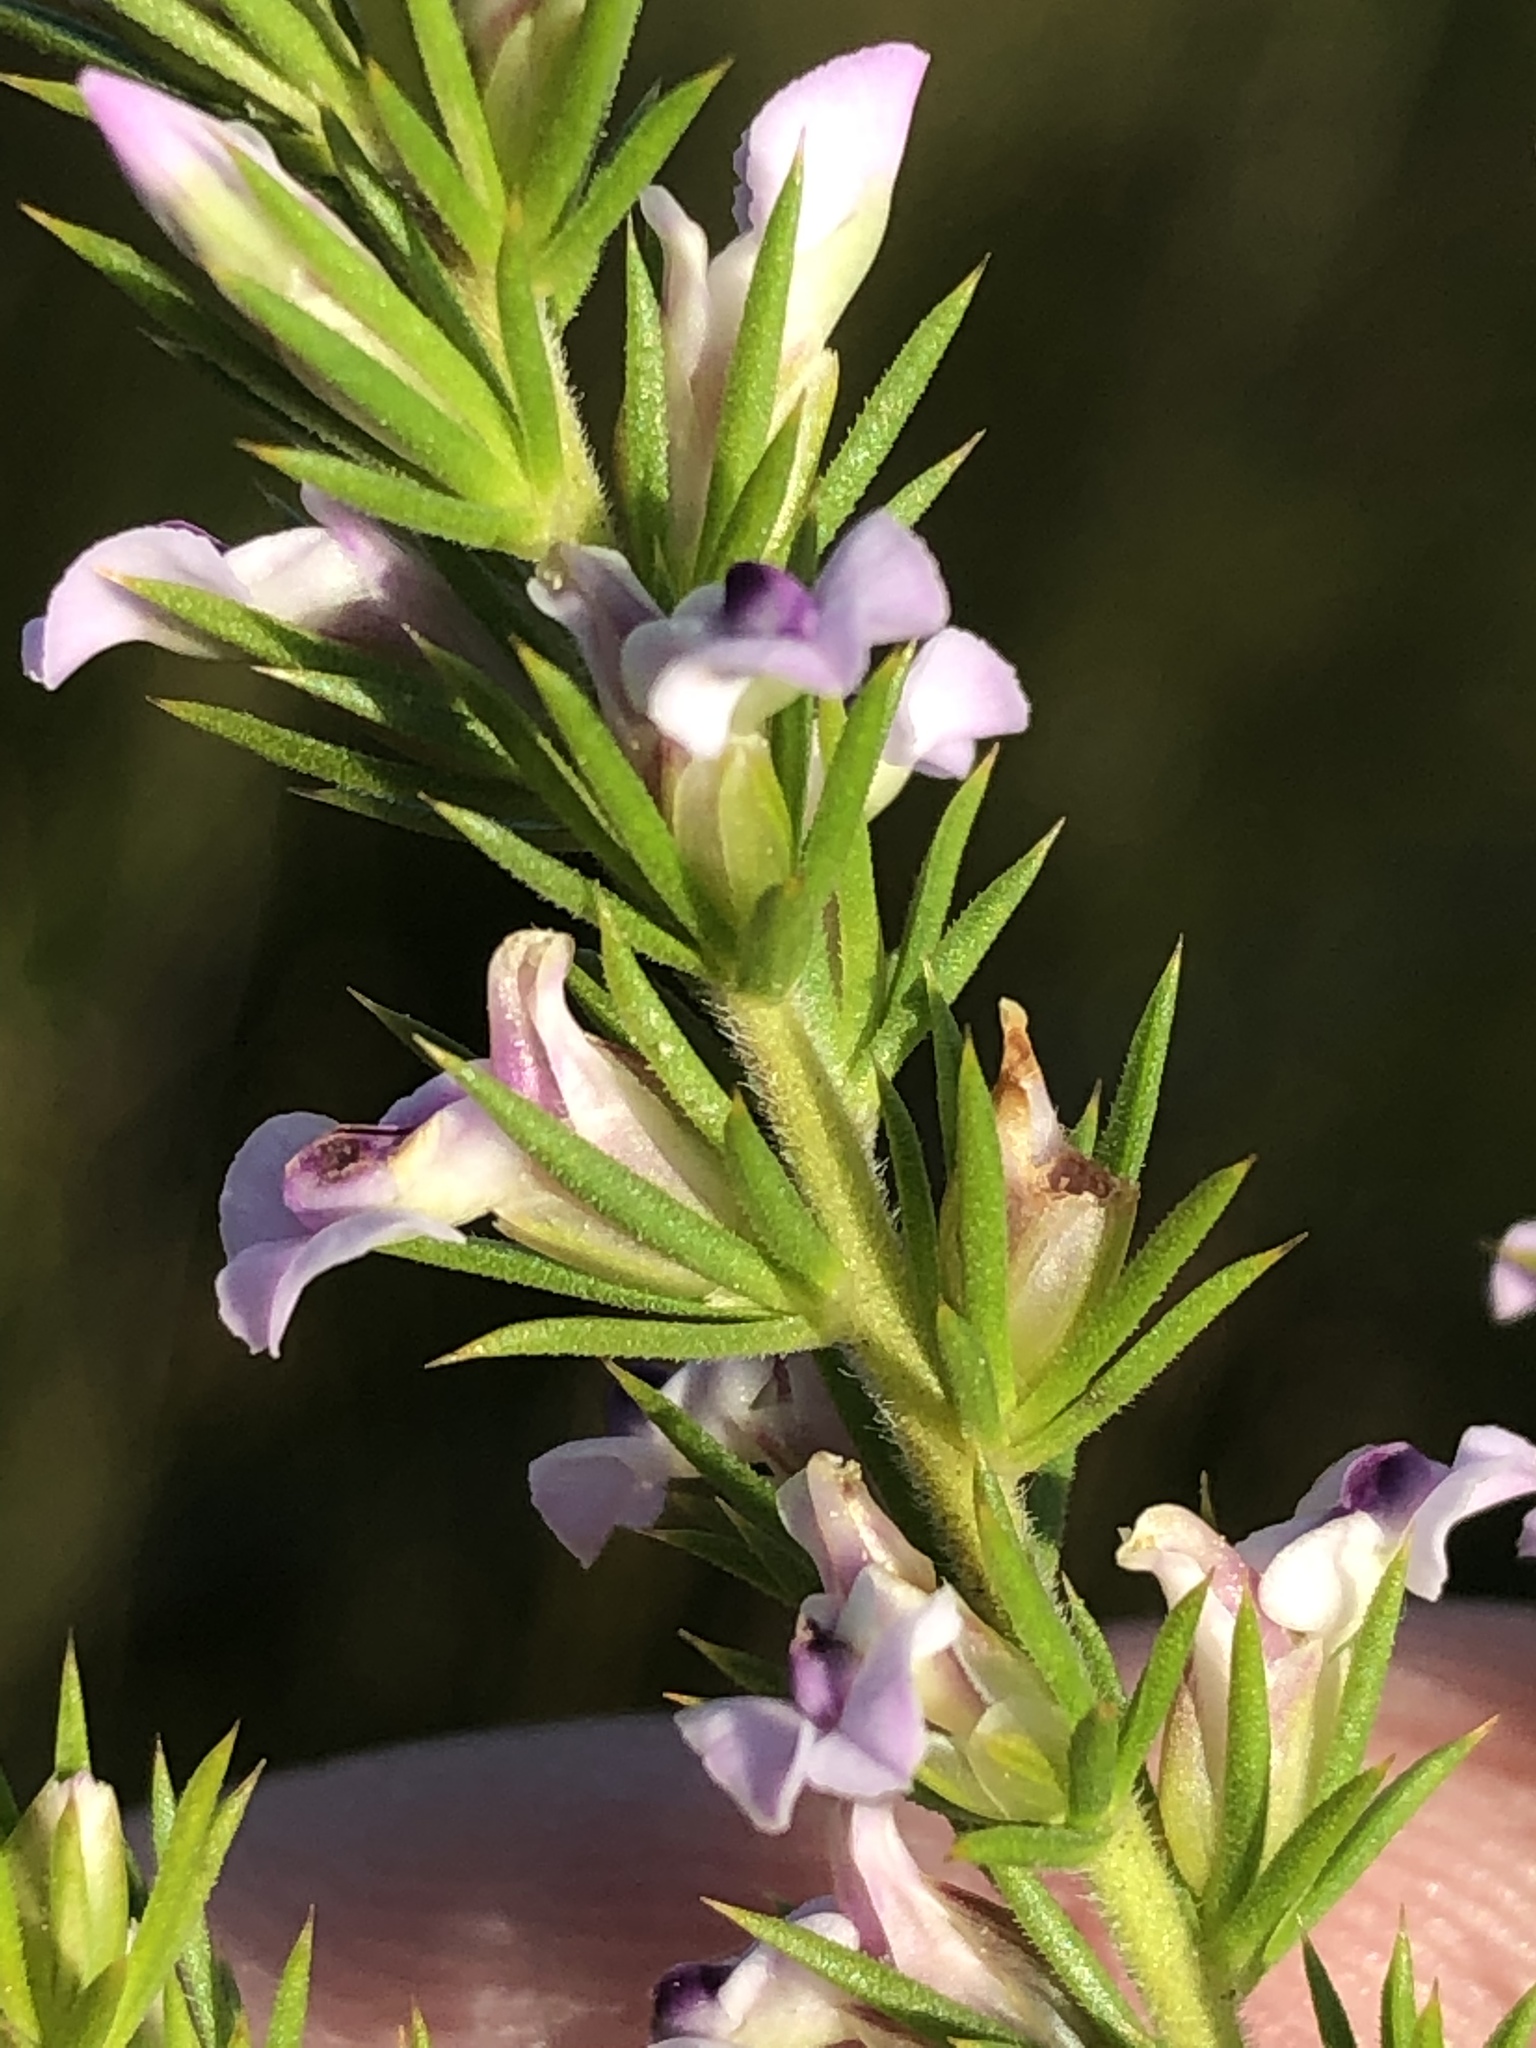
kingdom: Plantae
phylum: Tracheophyta
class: Magnoliopsida
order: Fabales
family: Polygalaceae
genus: Muraltia
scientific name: Muraltia ericifolia
